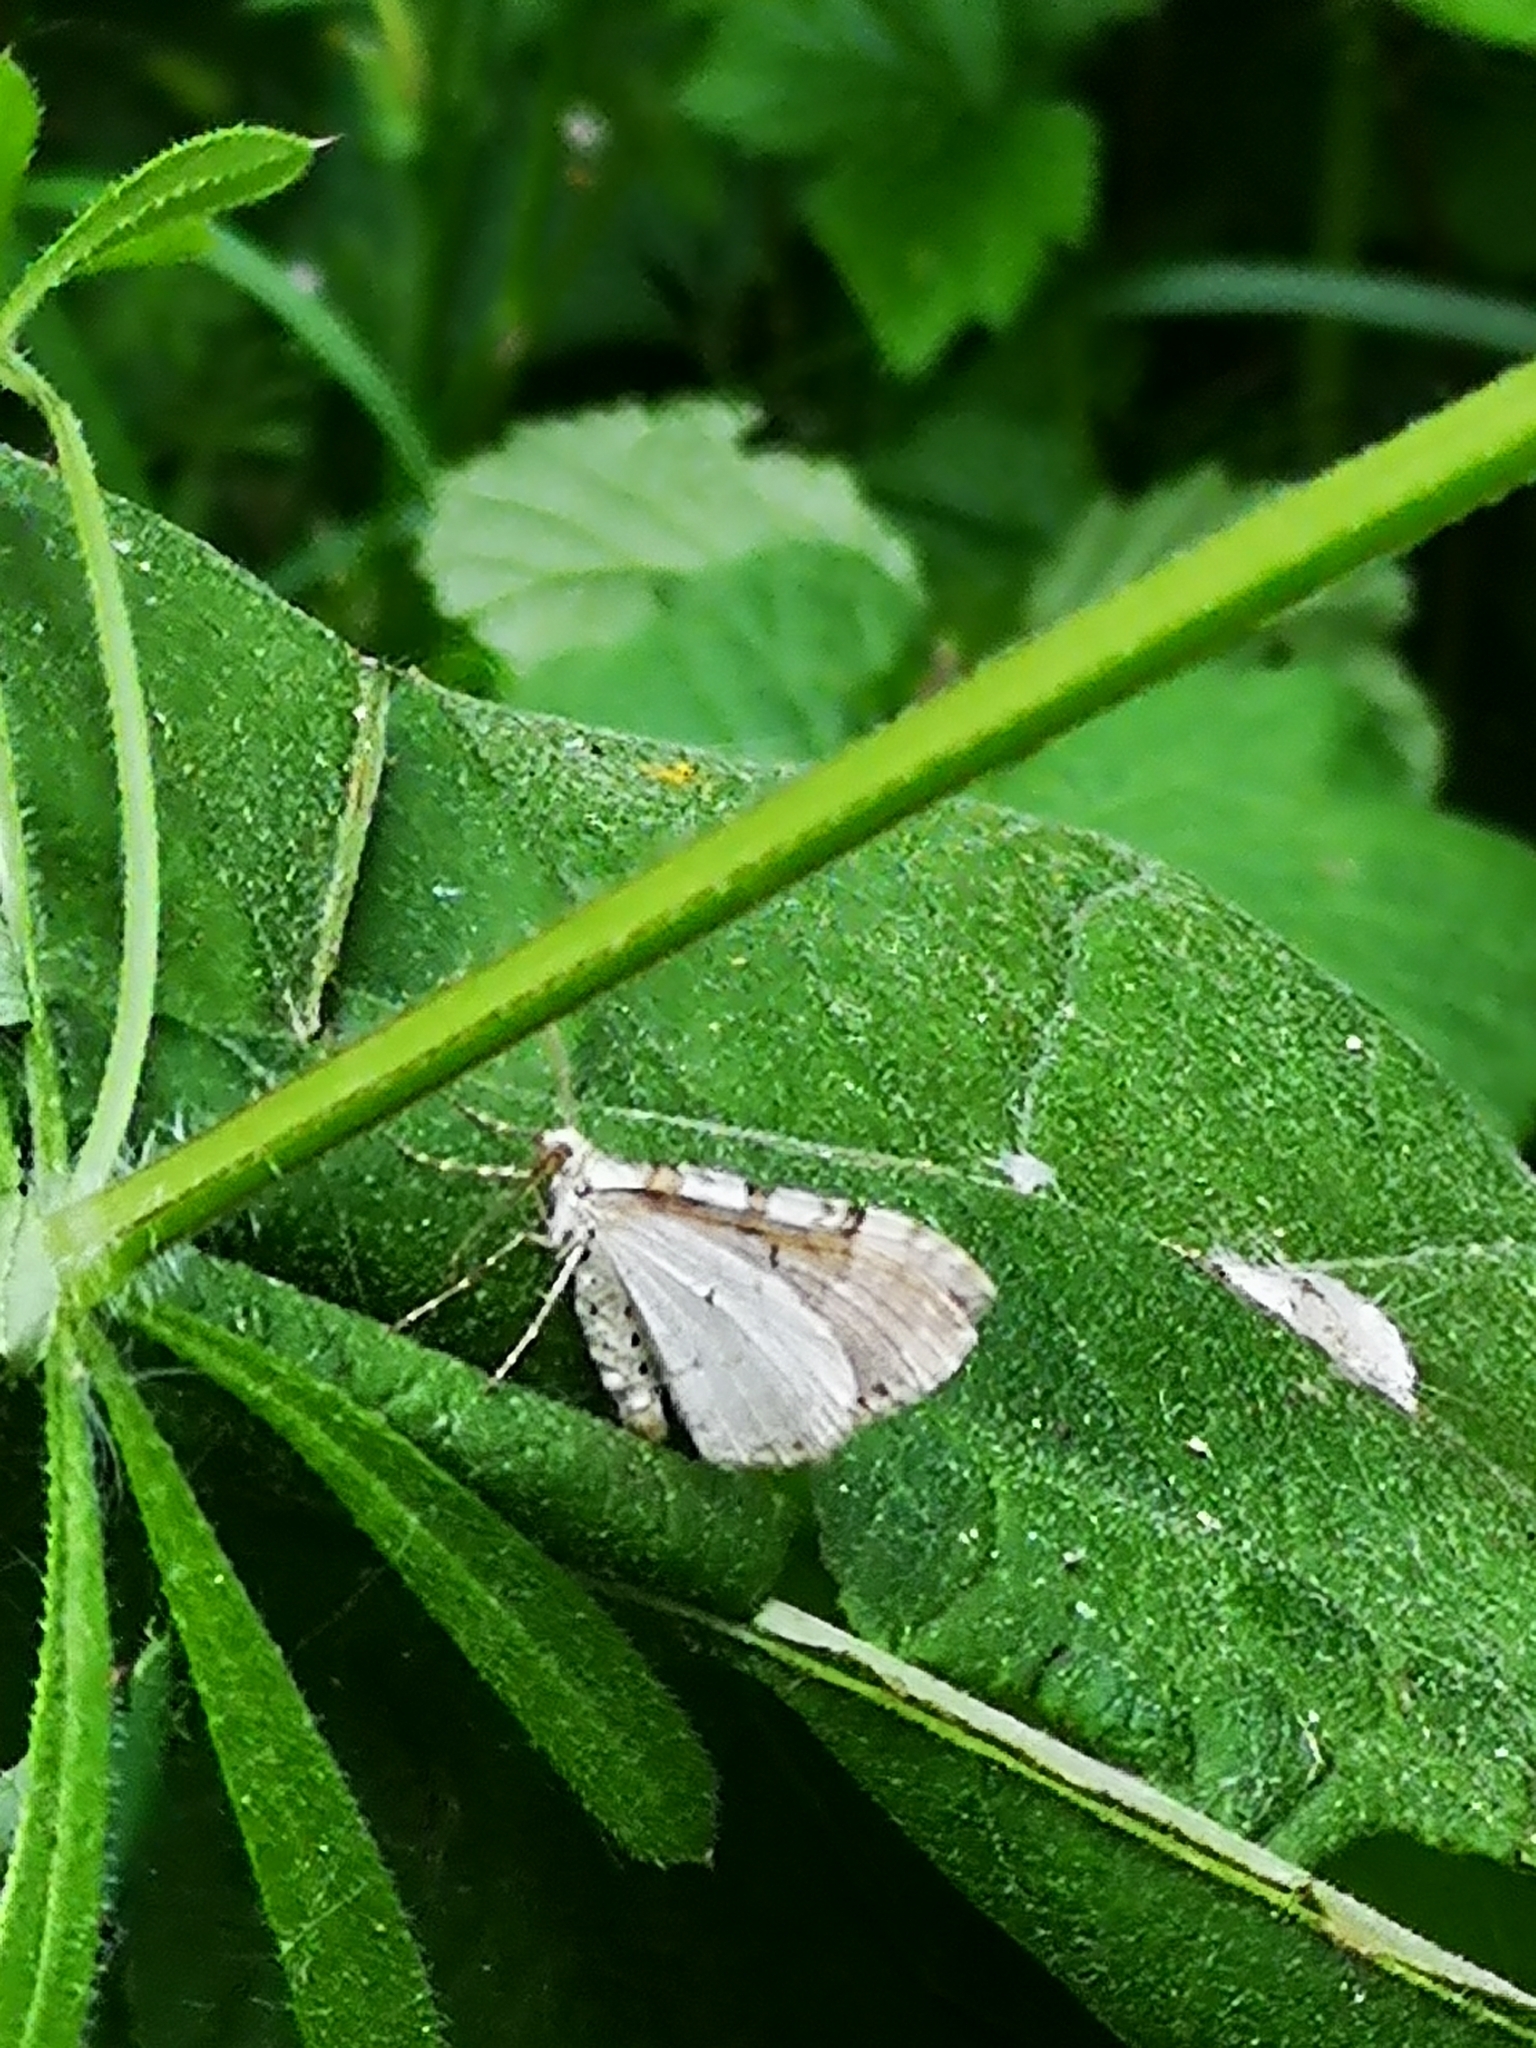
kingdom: Animalia
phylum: Arthropoda
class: Insecta
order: Lepidoptera
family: Geometridae
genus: Xanthorhoe
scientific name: Xanthorhoe montanata
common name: Silver-ground carpet
